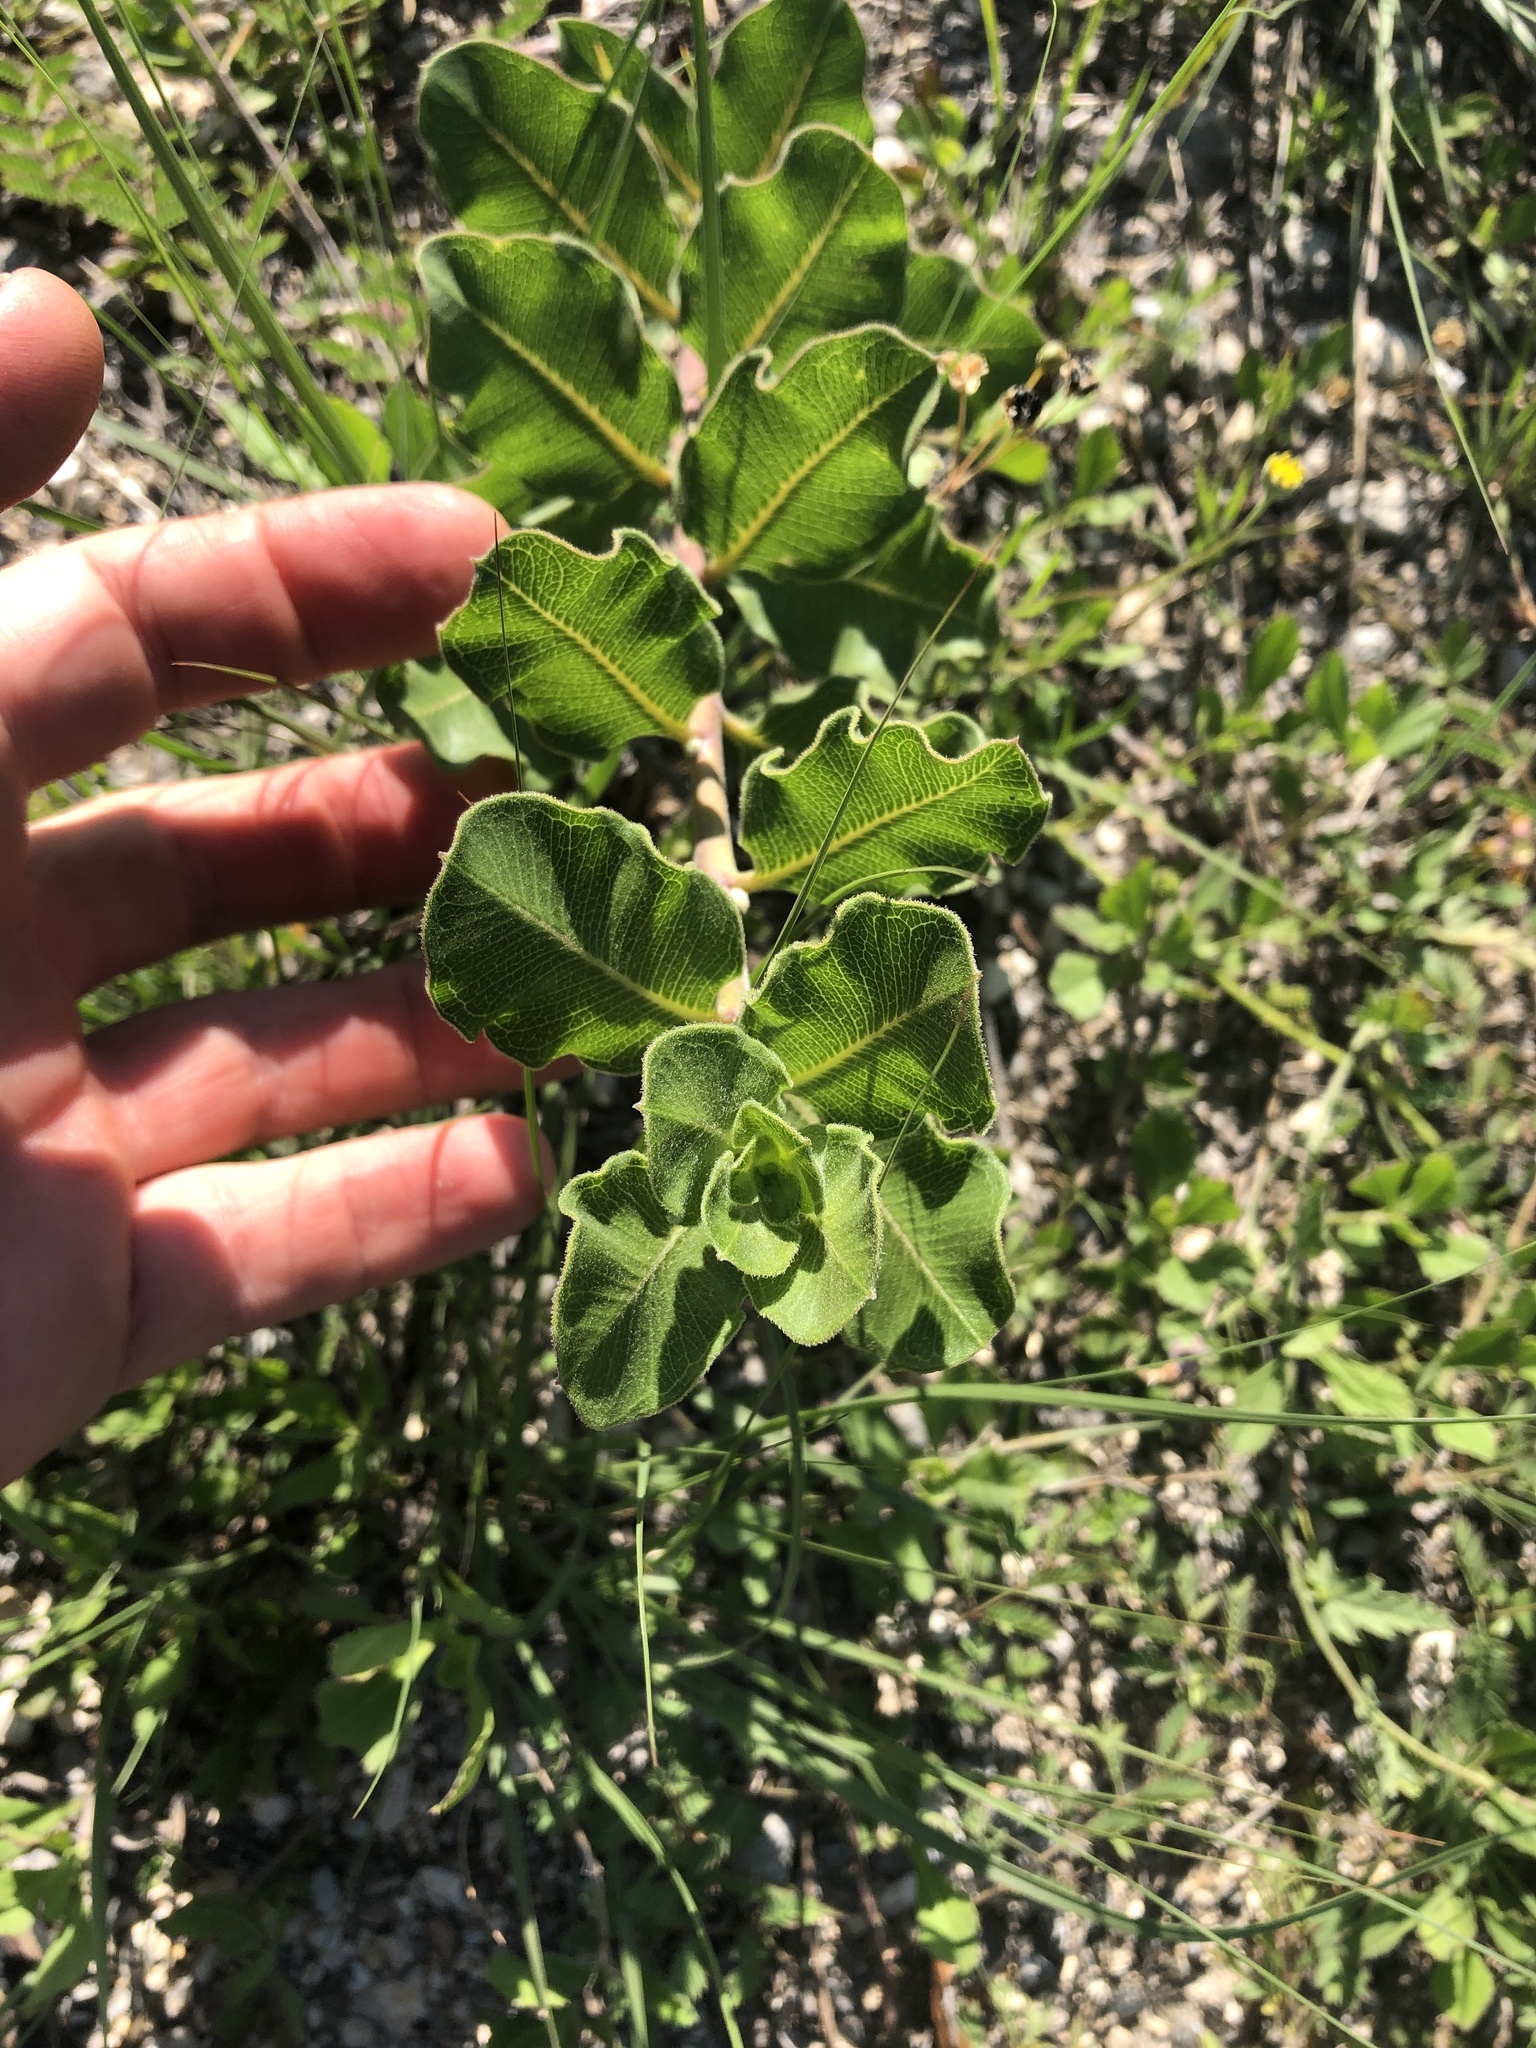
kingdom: Plantae
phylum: Tracheophyta
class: Magnoliopsida
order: Gentianales
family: Apocynaceae
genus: Asclepias
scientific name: Asclepias viridiflora
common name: Green comet milkweed
